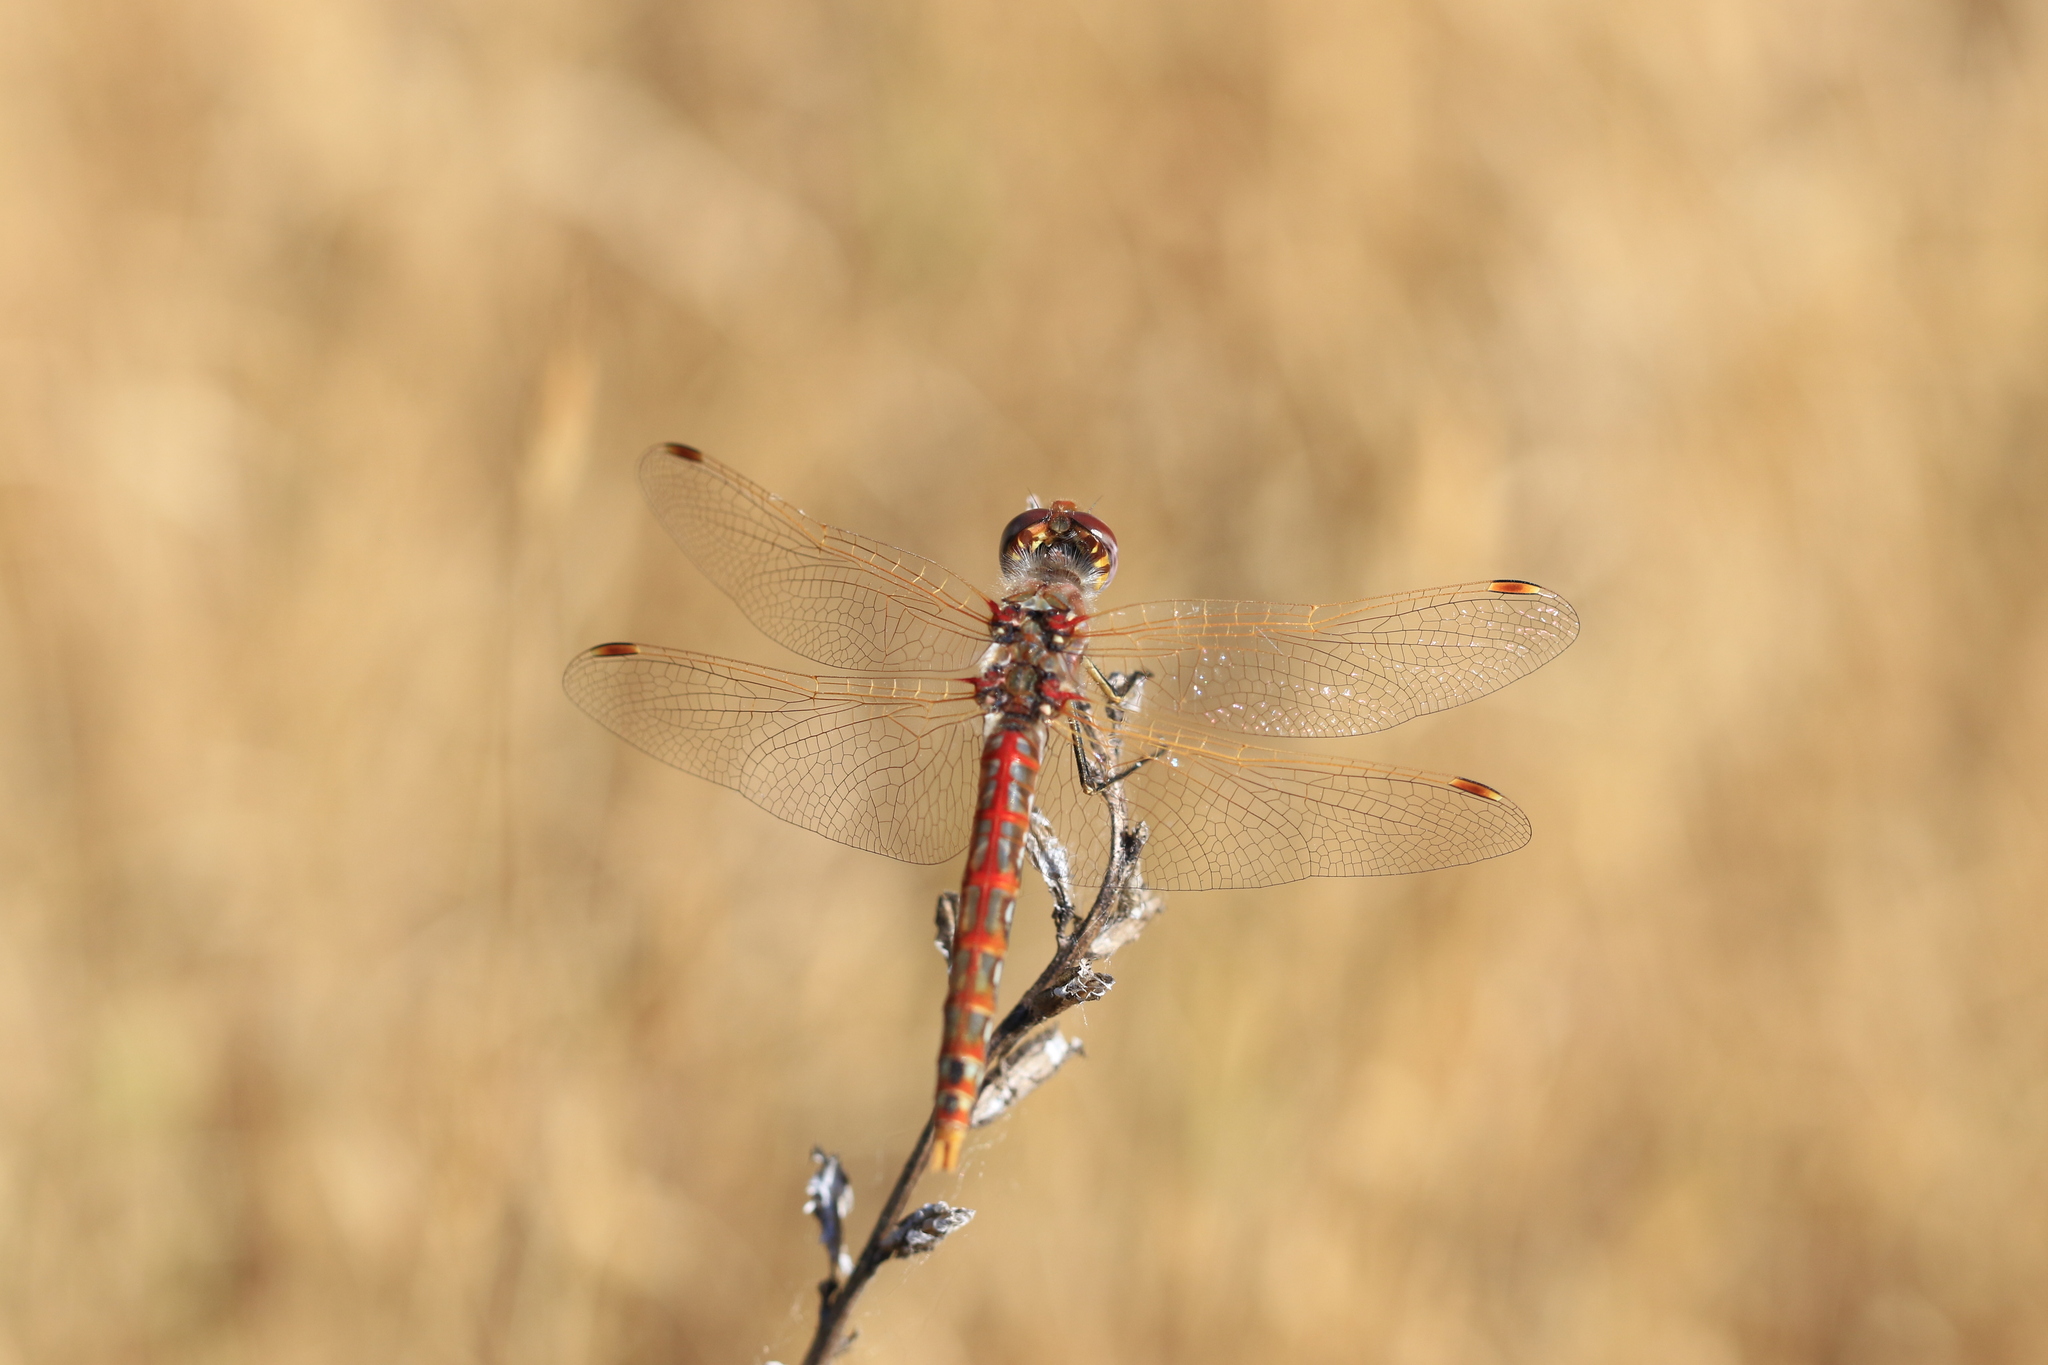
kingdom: Animalia
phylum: Arthropoda
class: Insecta
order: Odonata
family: Libellulidae
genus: Sympetrum
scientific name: Sympetrum corruptum
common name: Variegated meadowhawk
